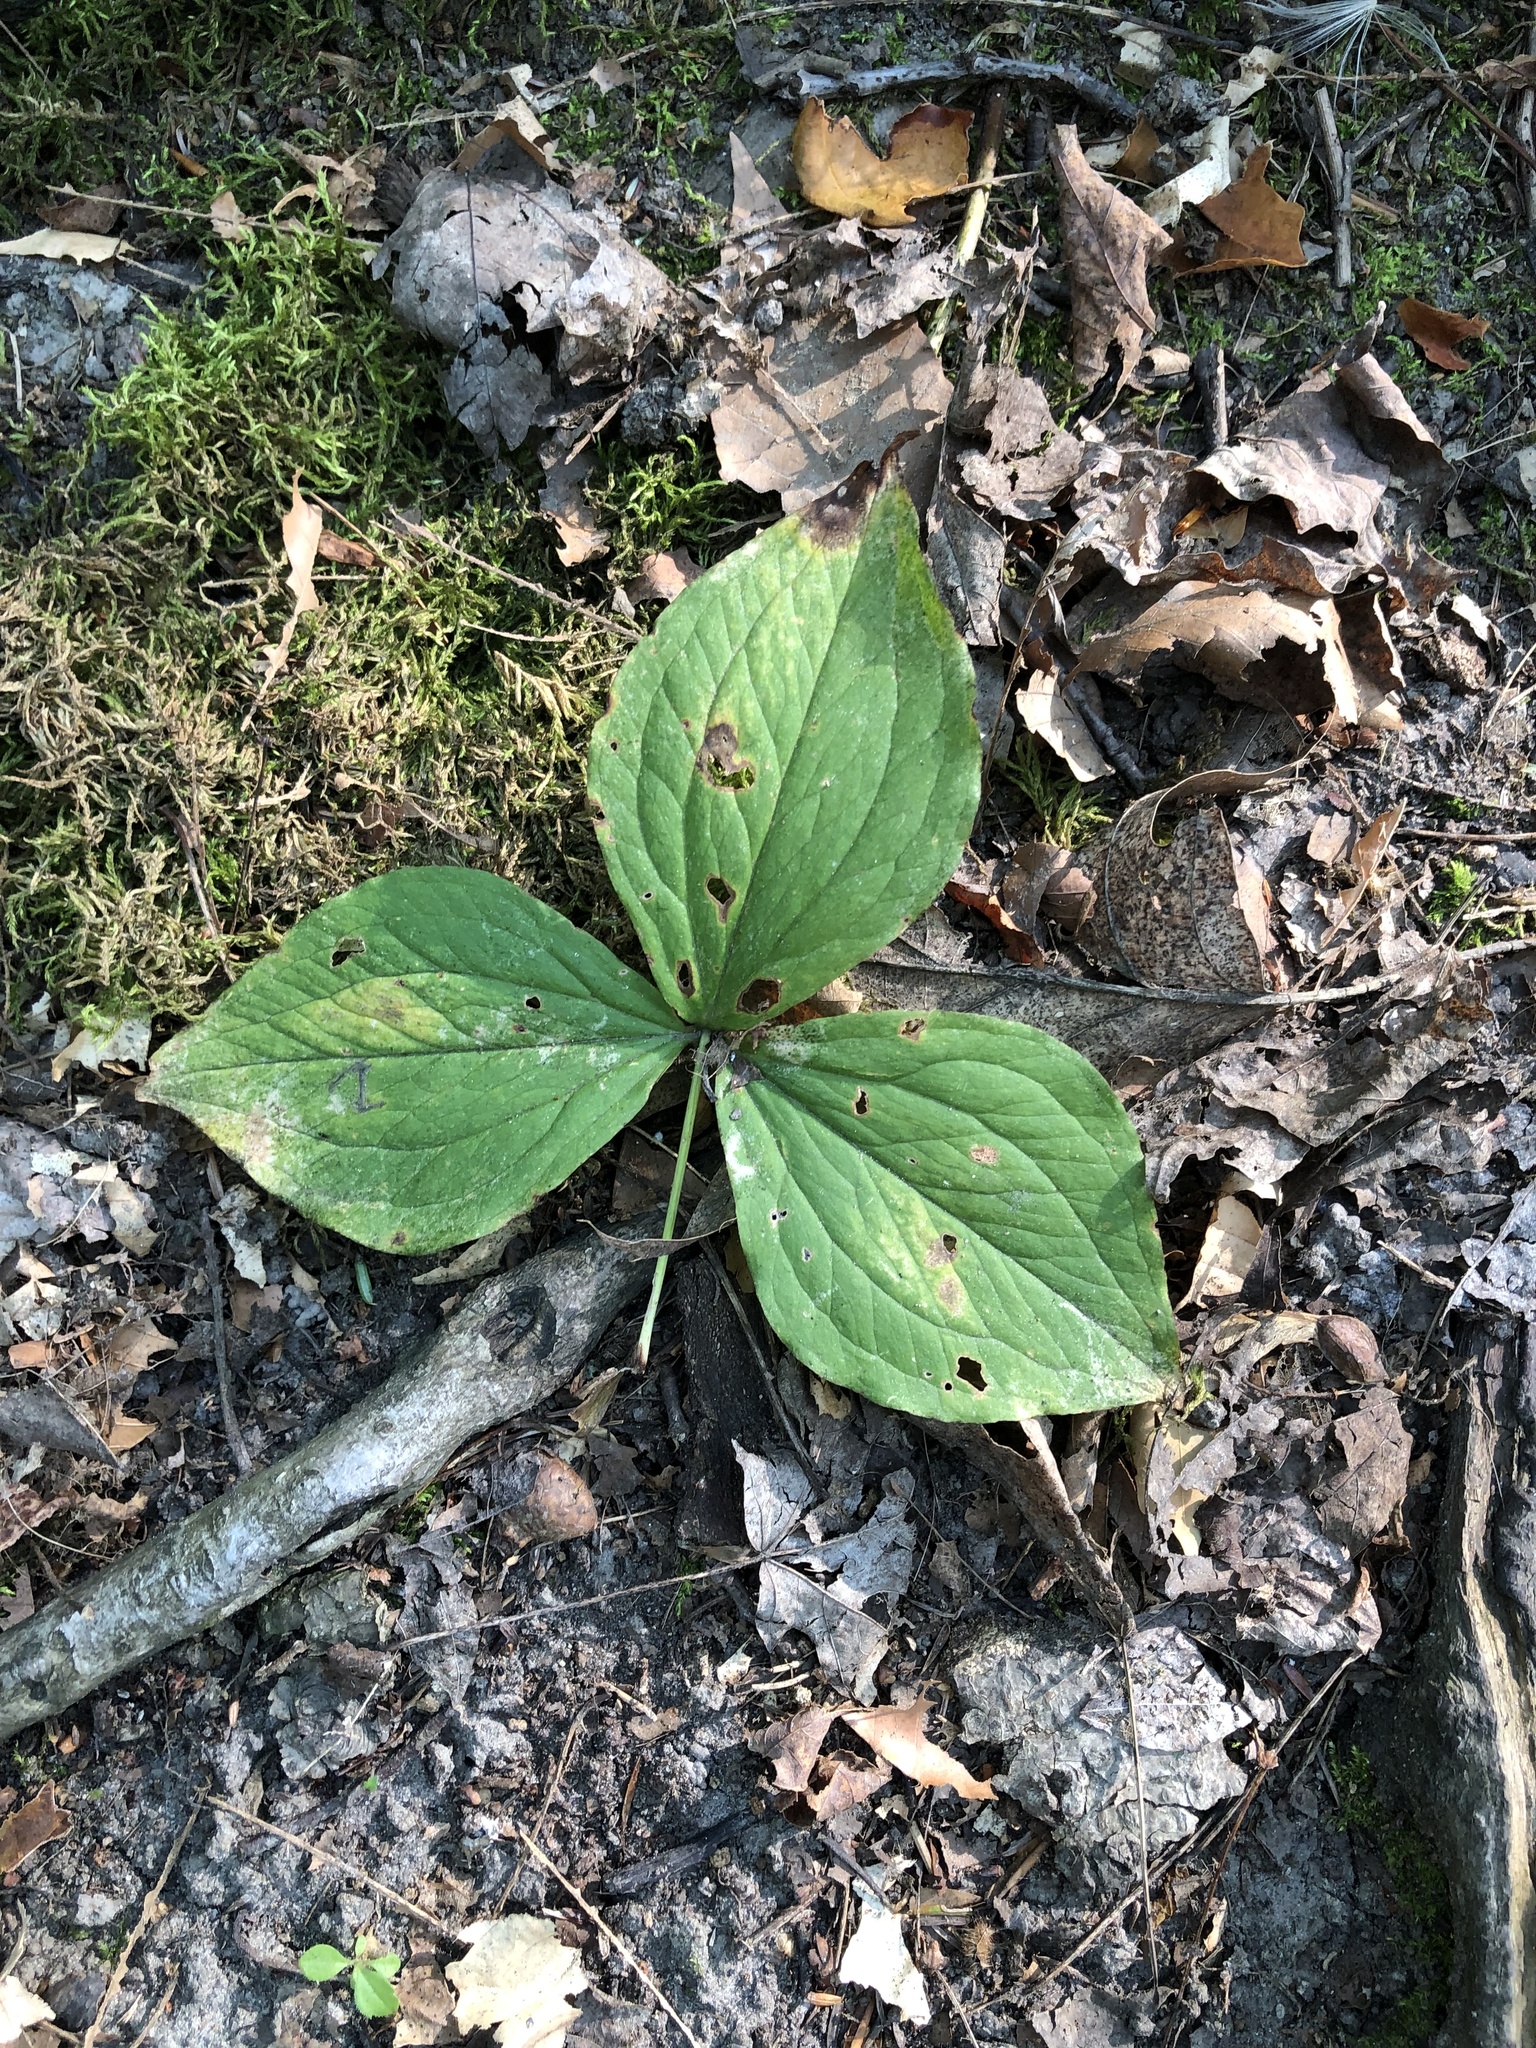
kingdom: Plantae
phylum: Tracheophyta
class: Liliopsida
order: Liliales
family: Melanthiaceae
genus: Trillium
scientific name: Trillium grandiflorum
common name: Great white trillium
